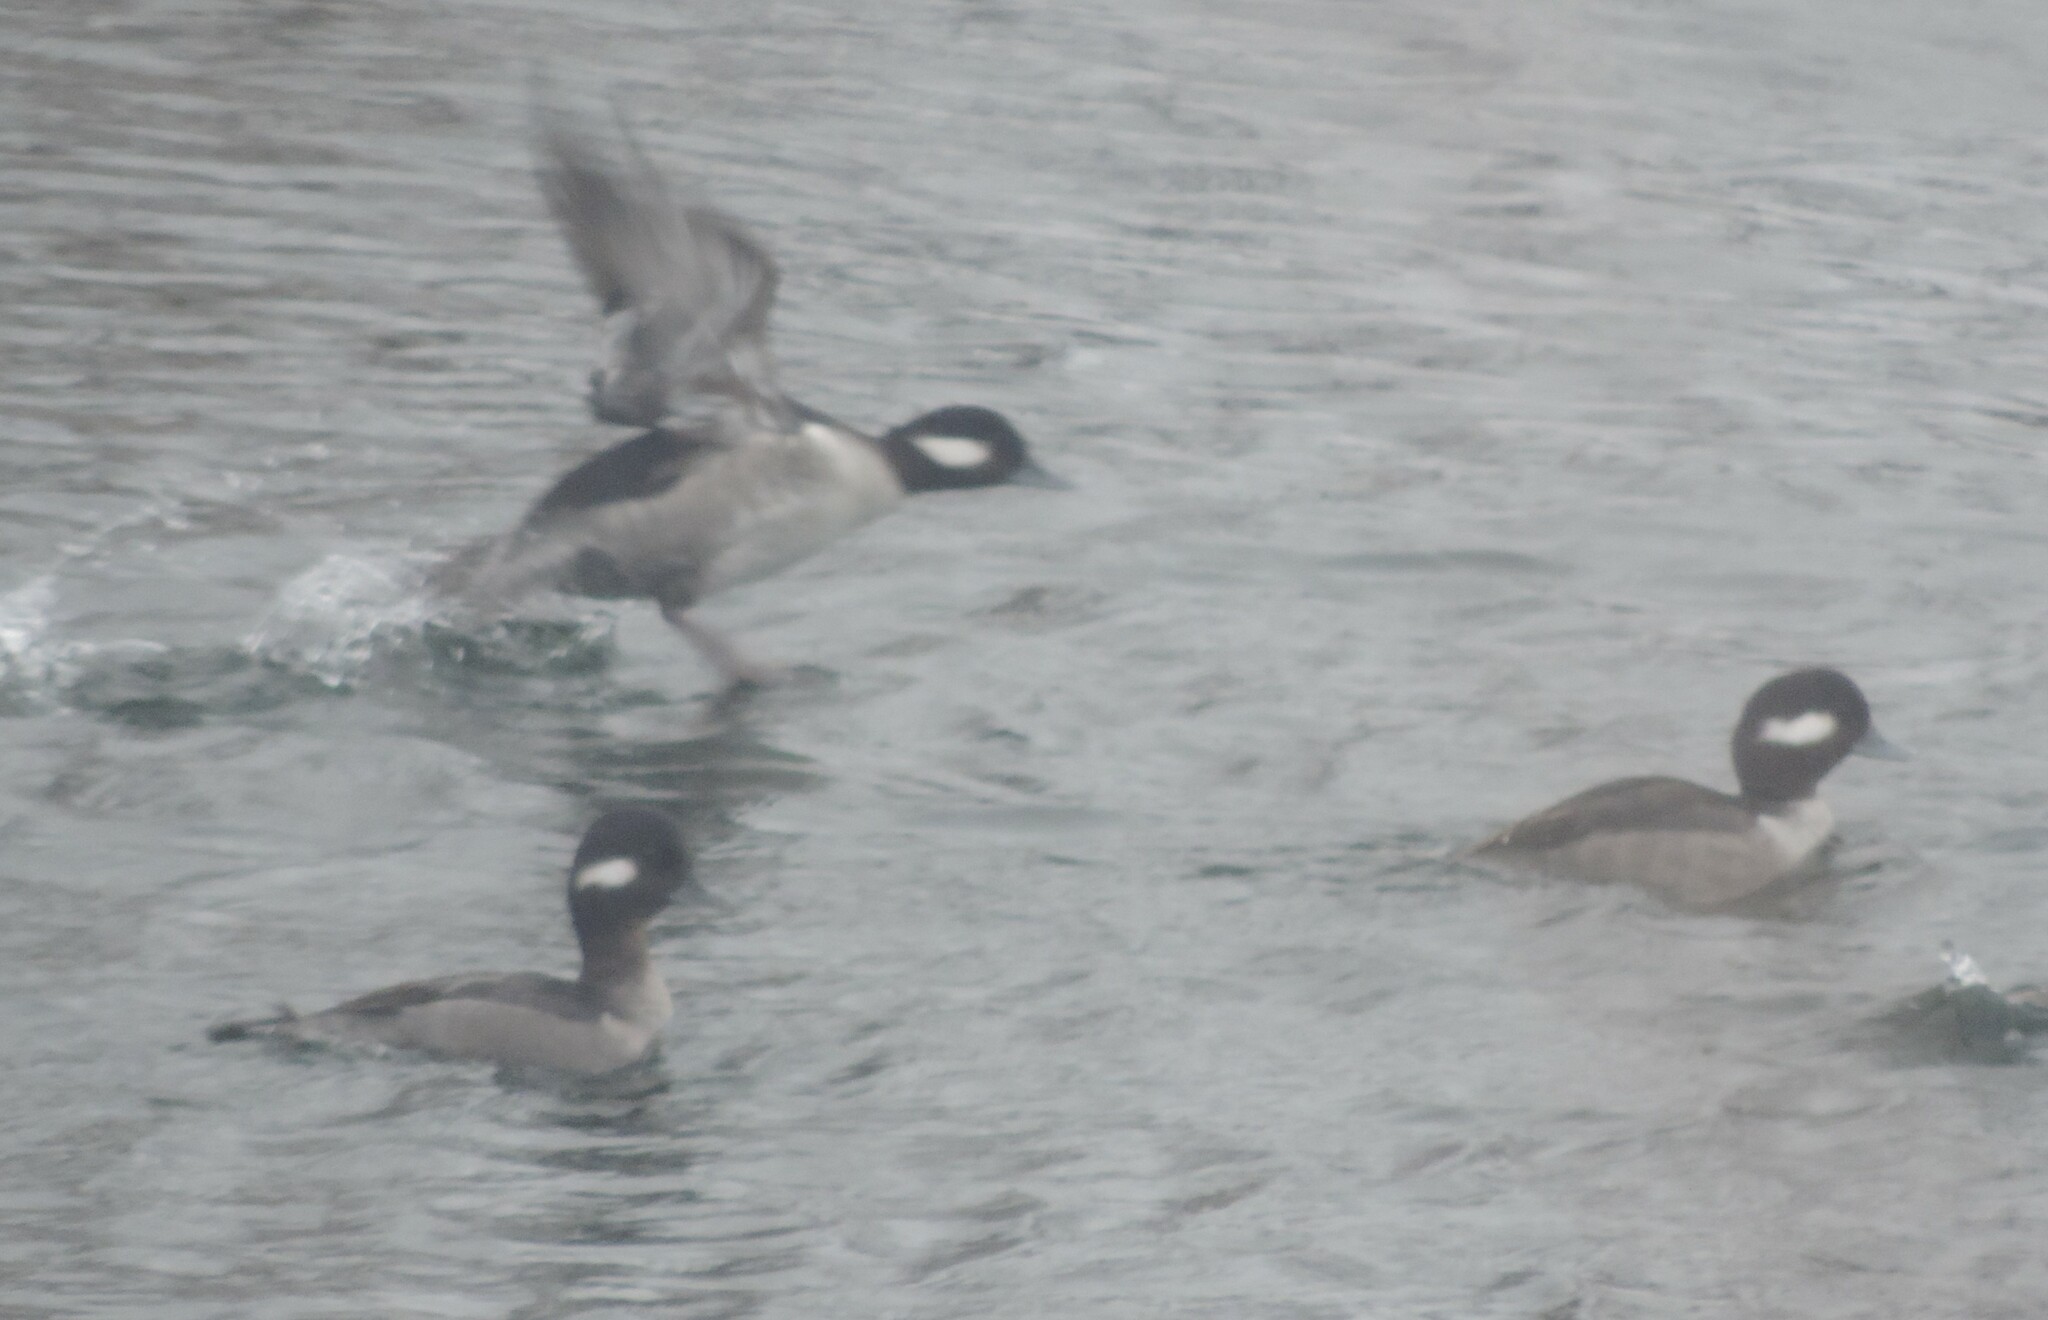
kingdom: Animalia
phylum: Chordata
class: Aves
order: Anseriformes
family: Anatidae
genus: Bucephala
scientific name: Bucephala albeola
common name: Bufflehead
